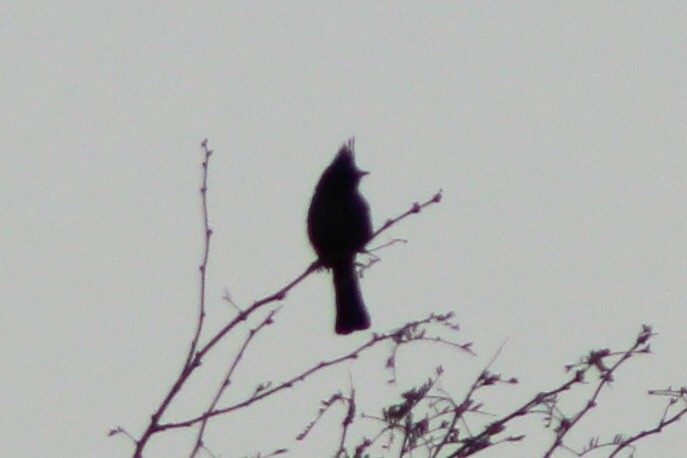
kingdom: Animalia
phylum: Chordata
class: Aves
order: Passeriformes
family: Ptilogonatidae
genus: Phainopepla
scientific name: Phainopepla nitens
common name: Phainopepla
